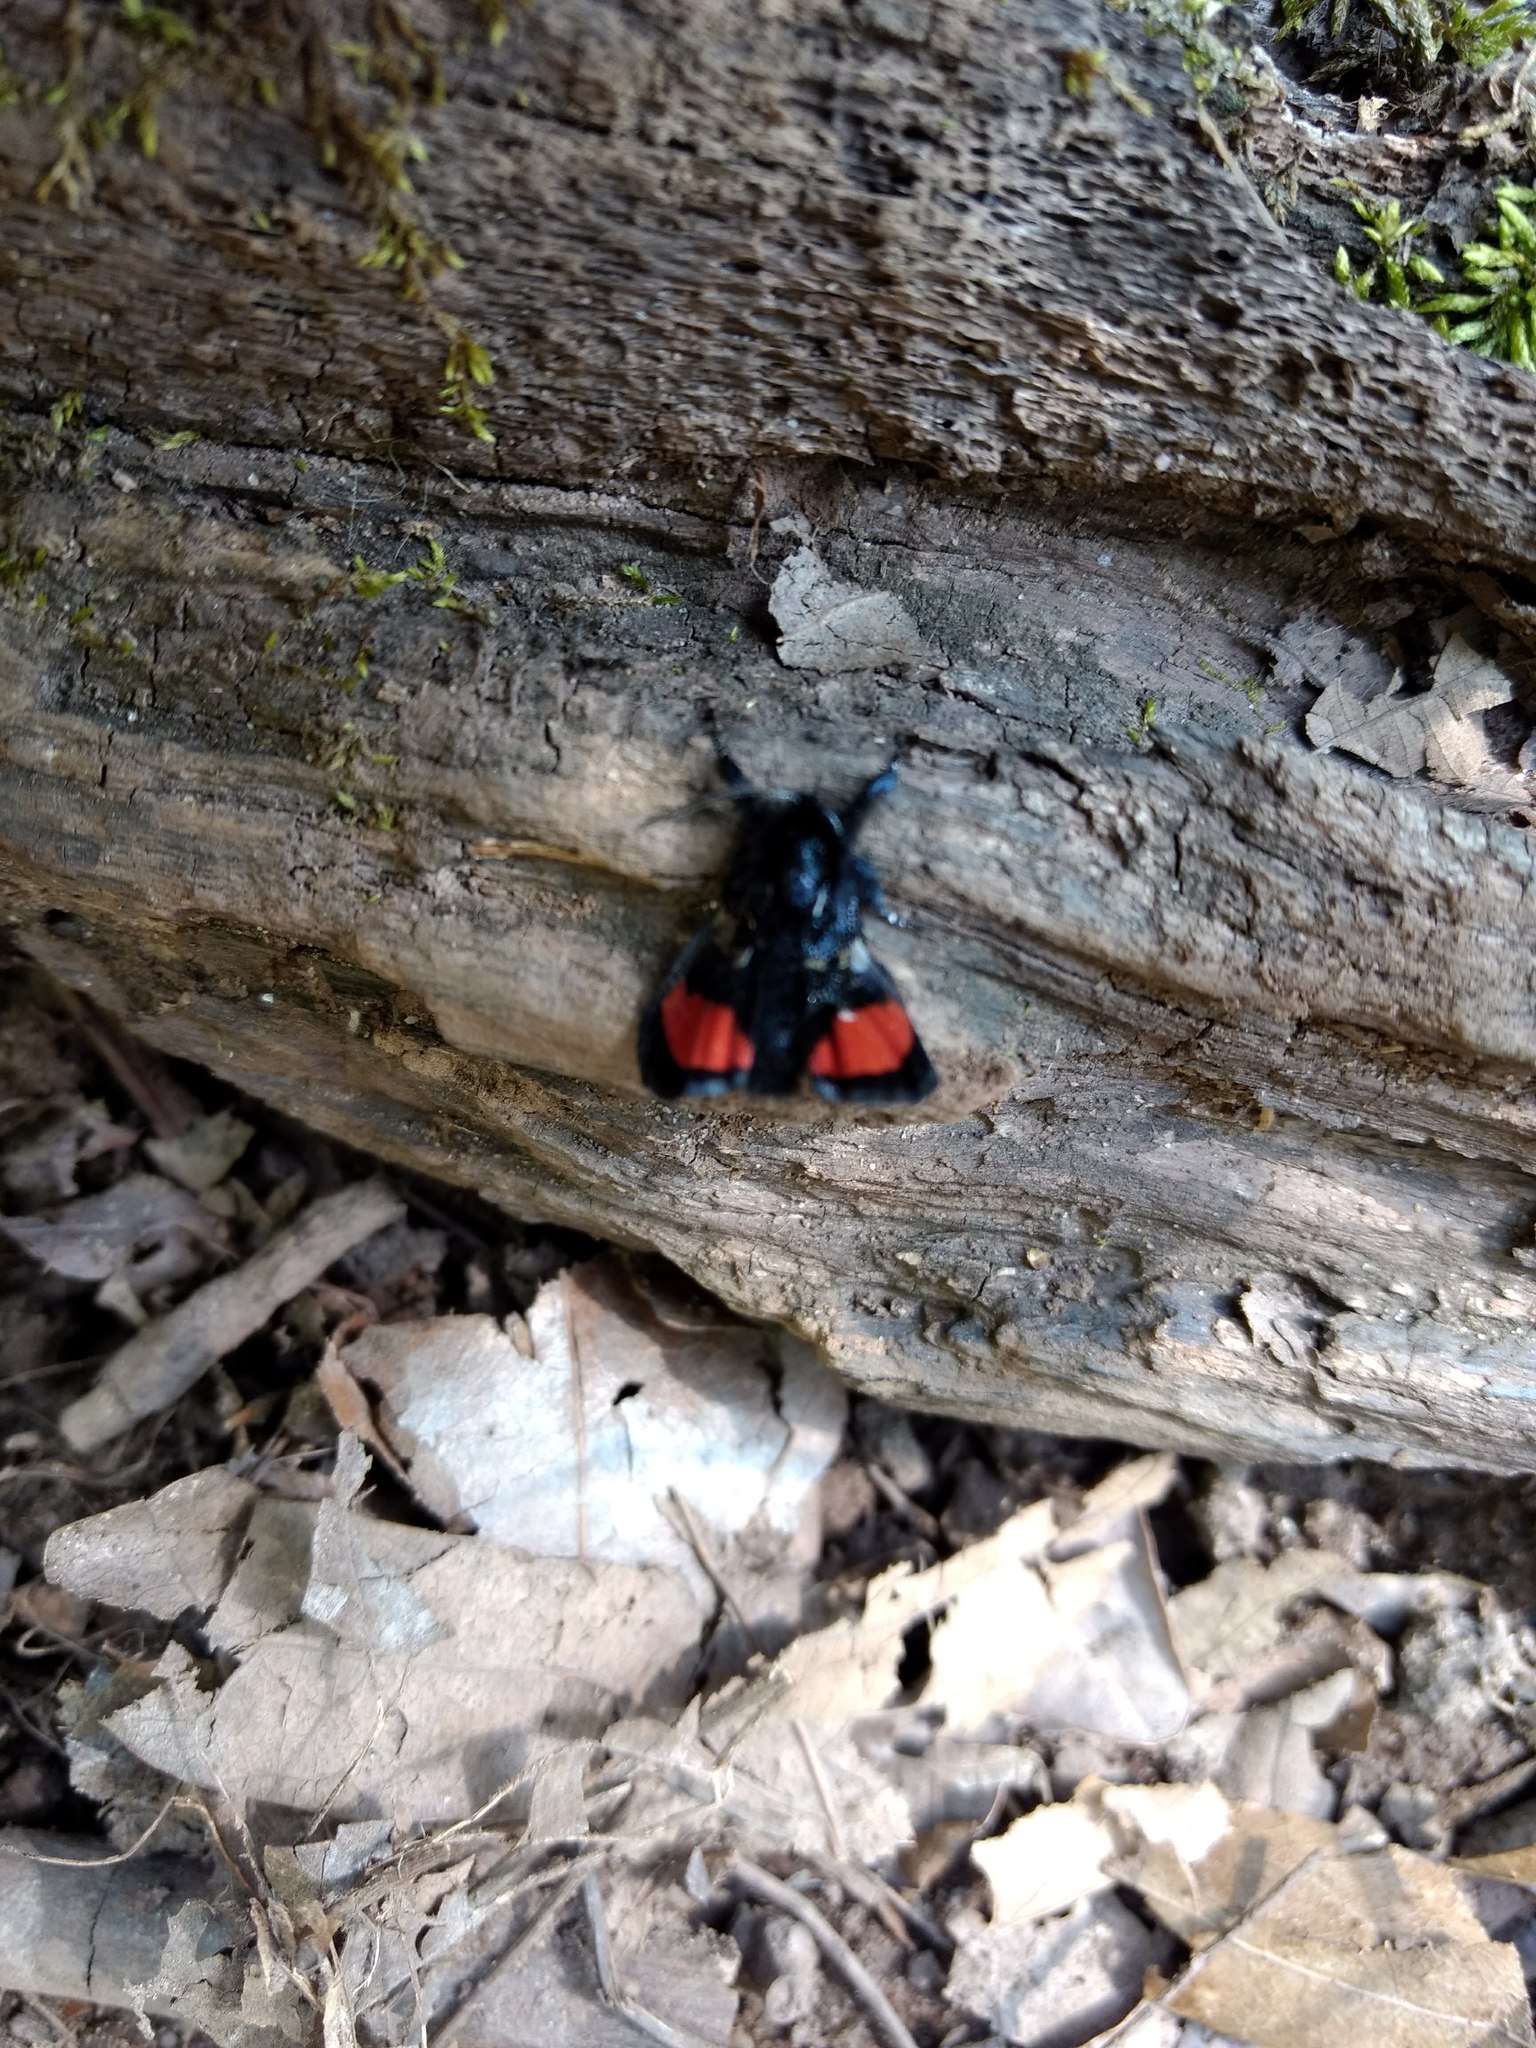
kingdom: Animalia
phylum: Arthropoda
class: Insecta
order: Lepidoptera
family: Noctuidae
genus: Psychomorpha
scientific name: Psychomorpha epimenis
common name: Grapevine epimenis moth
